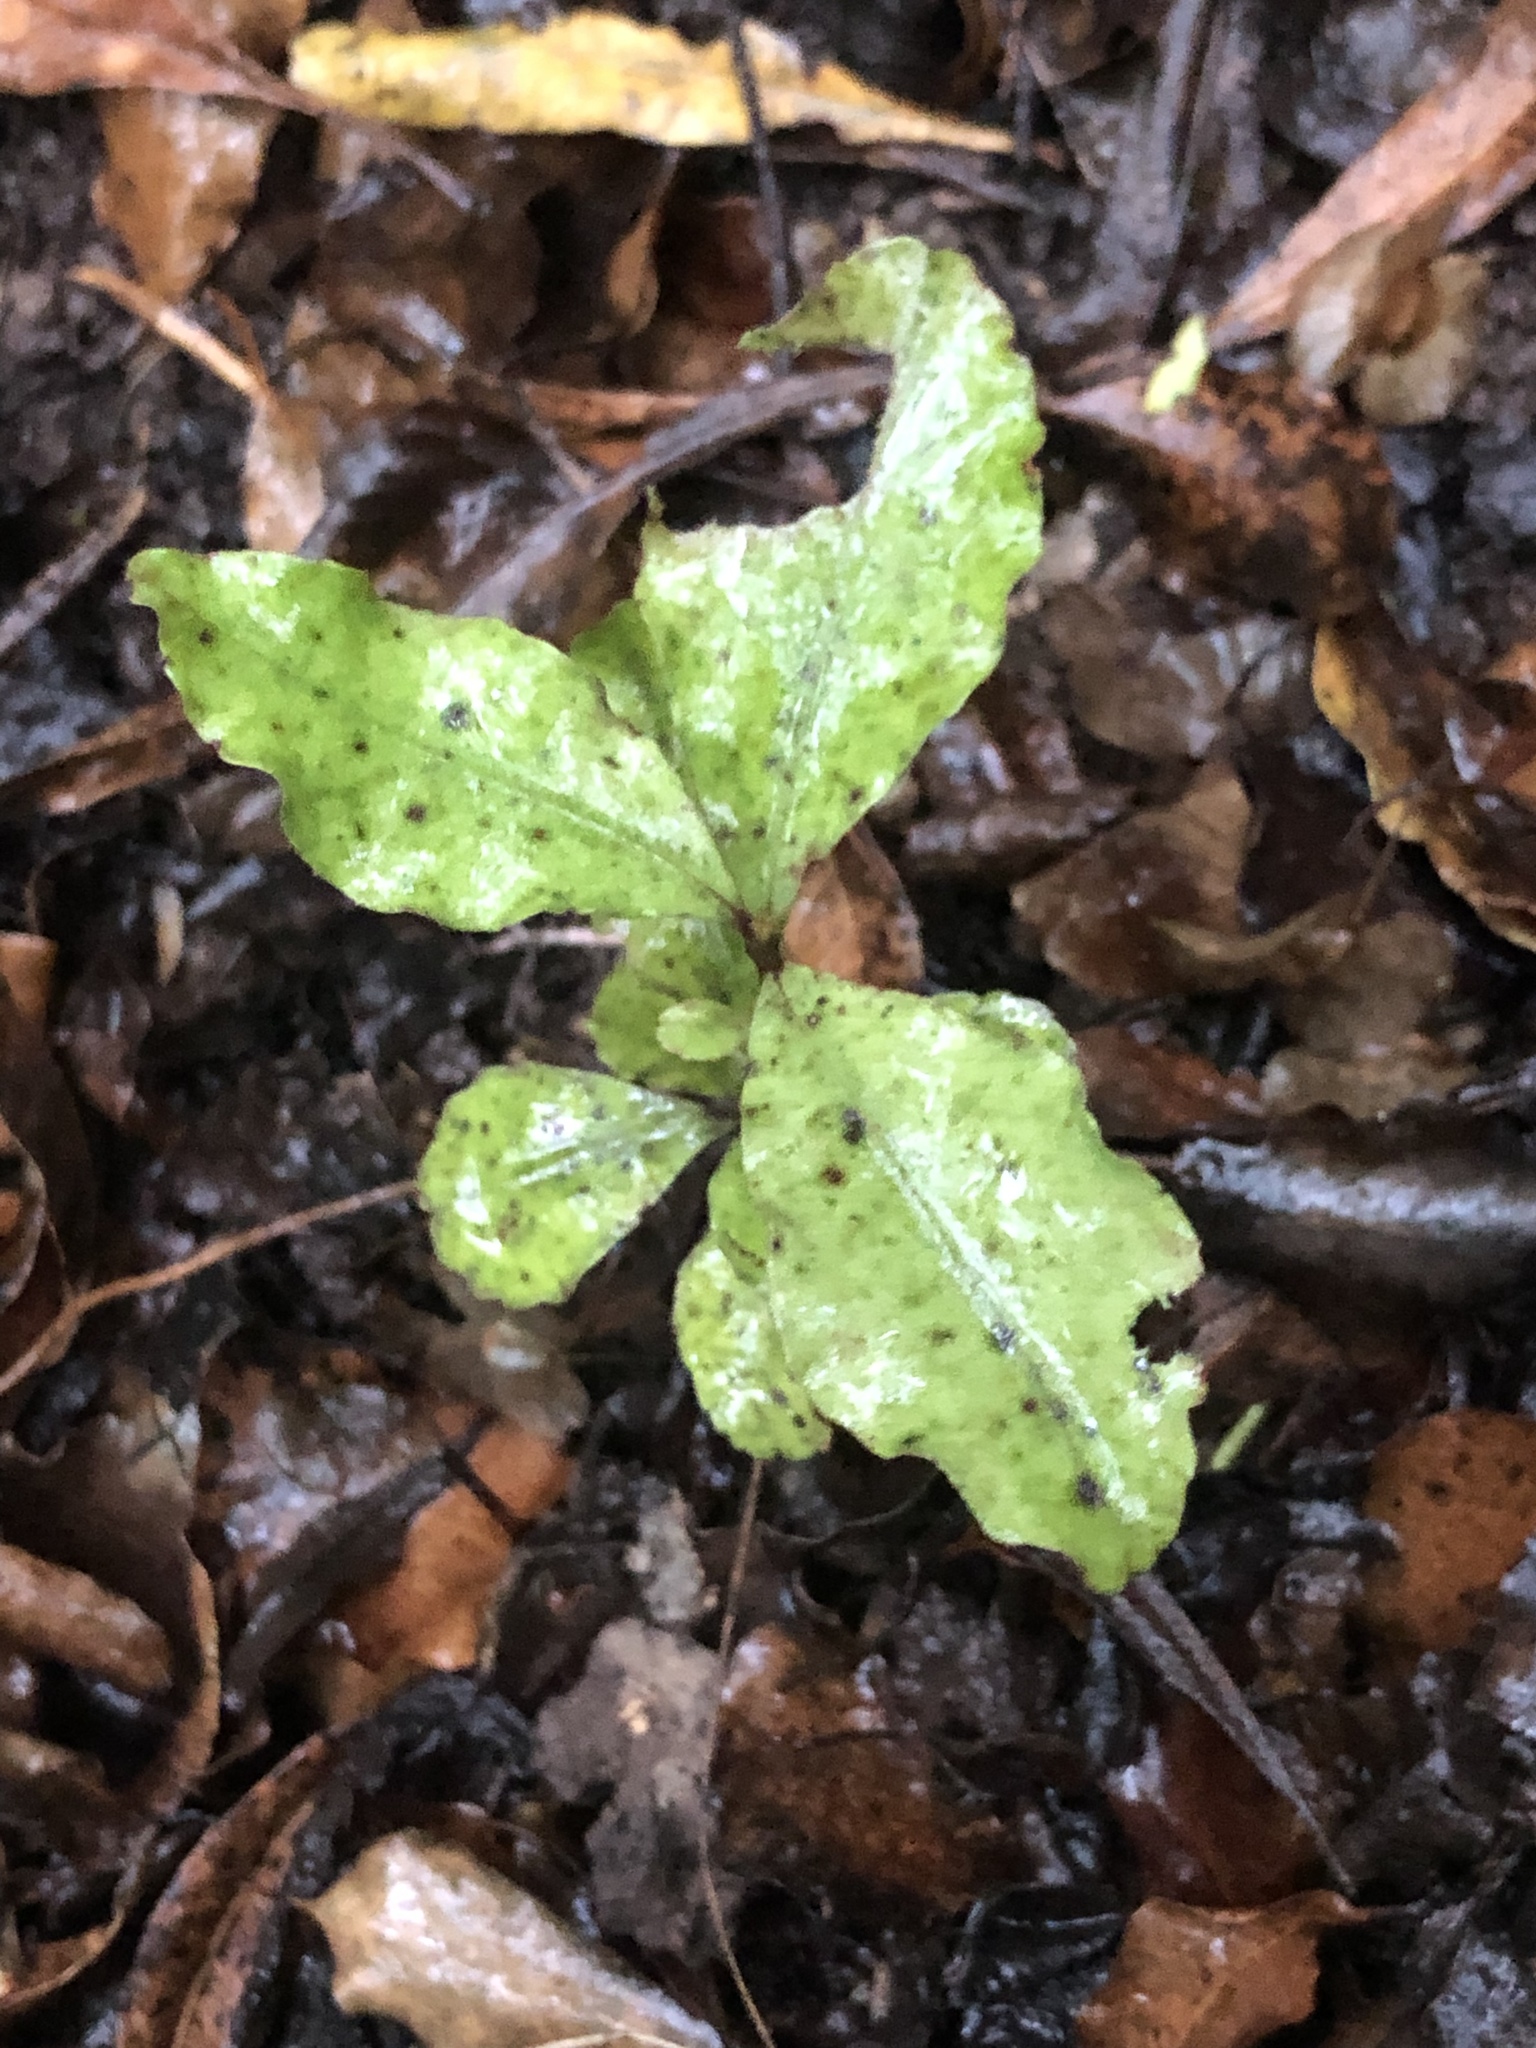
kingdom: Plantae
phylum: Tracheophyta
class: Magnoliopsida
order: Apiales
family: Pittosporaceae
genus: Pittosporum
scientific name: Pittosporum tenuifolium
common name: Kohuhu
